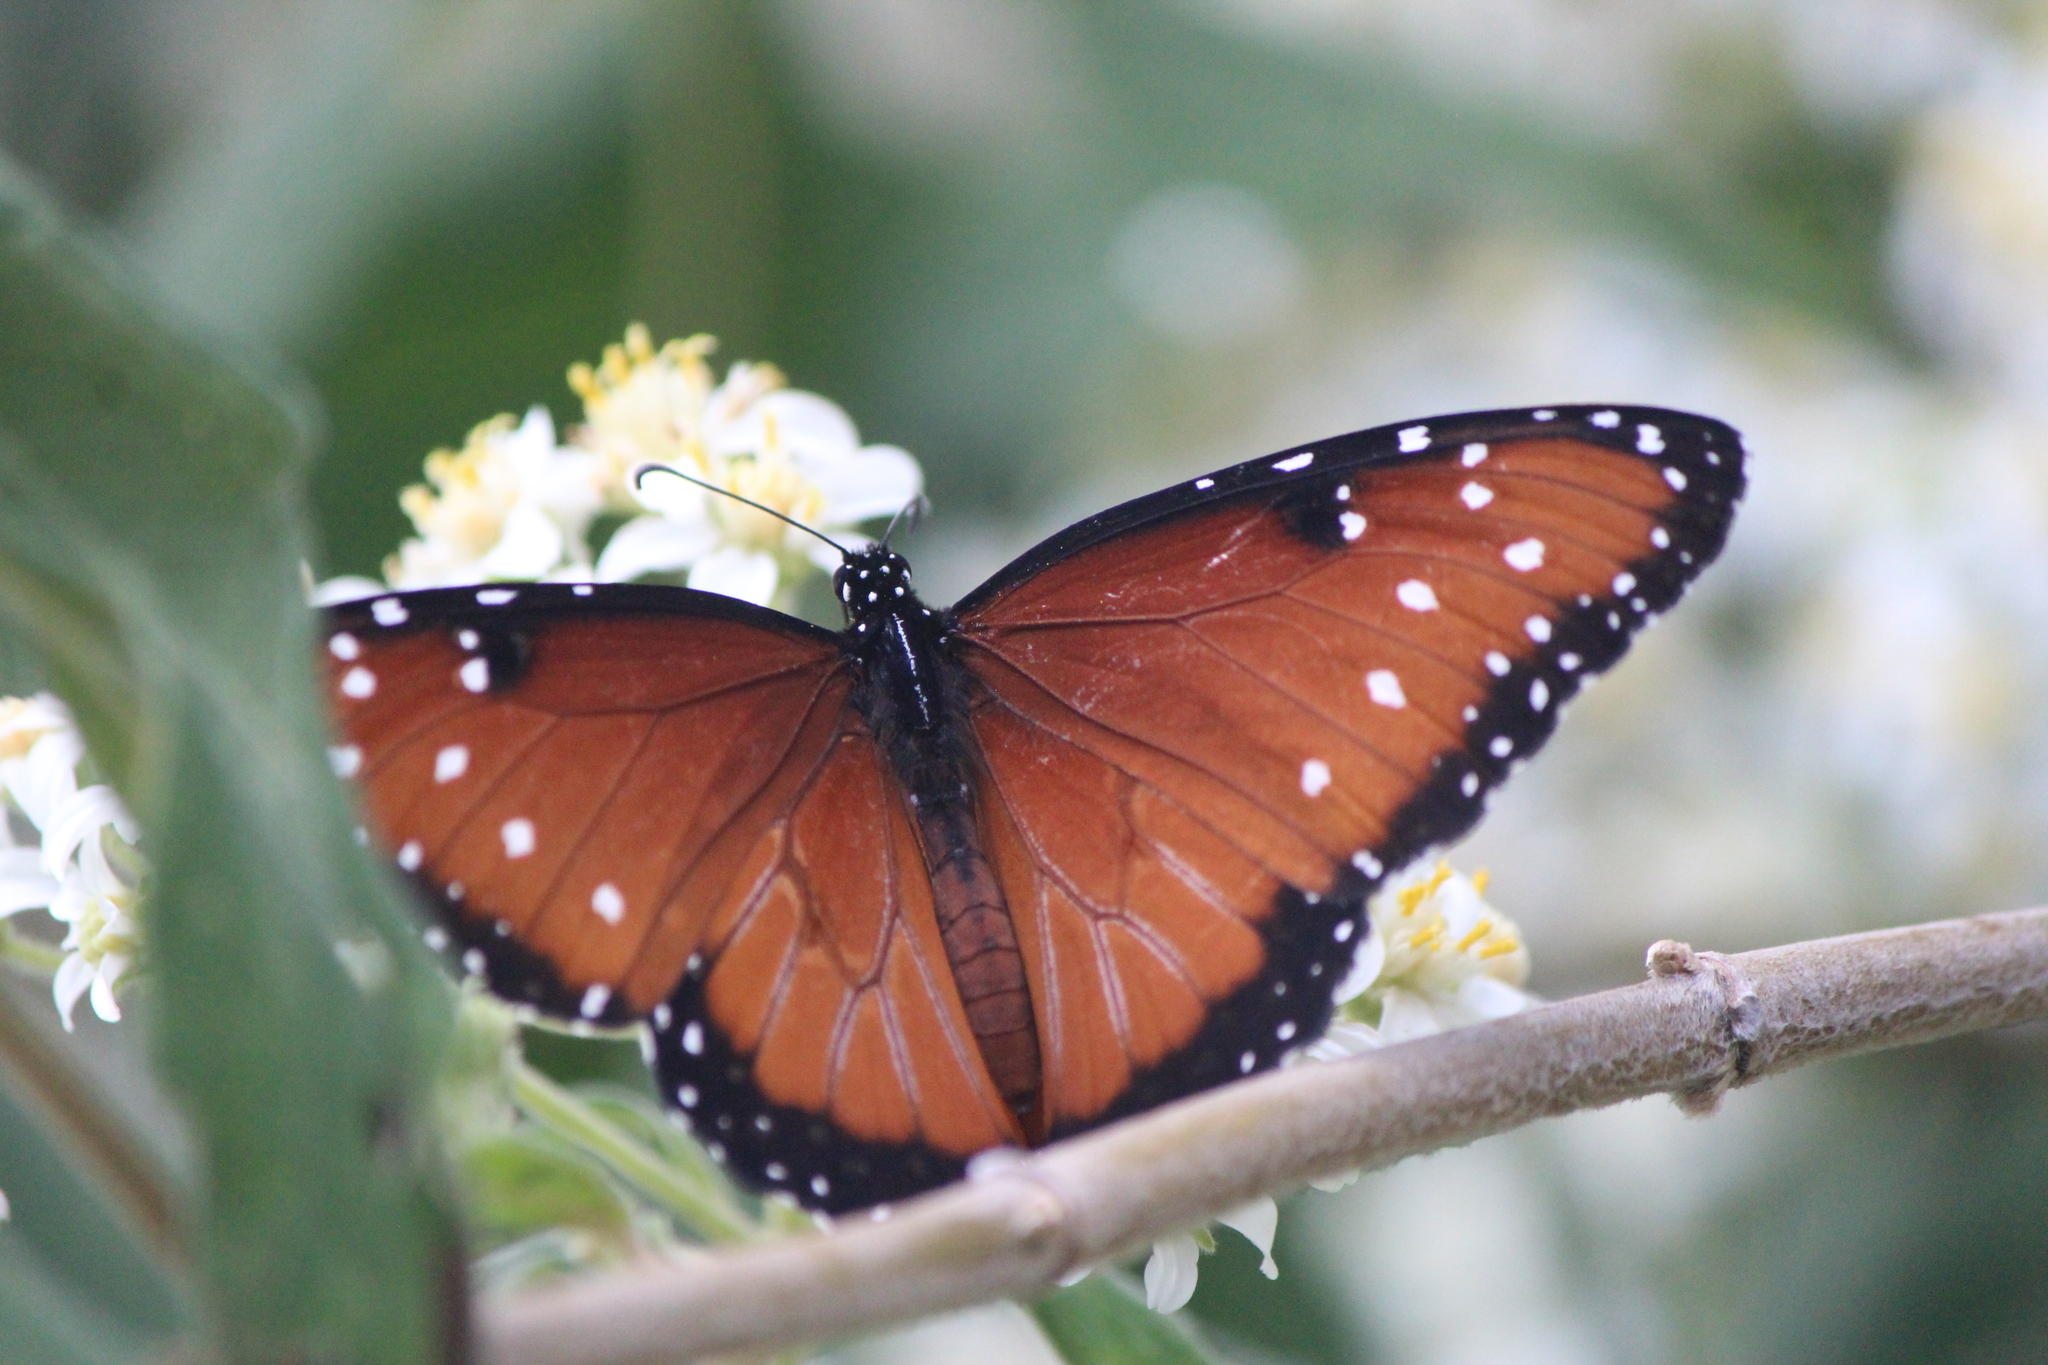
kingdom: Animalia
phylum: Arthropoda
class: Insecta
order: Lepidoptera
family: Nymphalidae
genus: Danaus
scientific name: Danaus gilippus
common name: Queen
